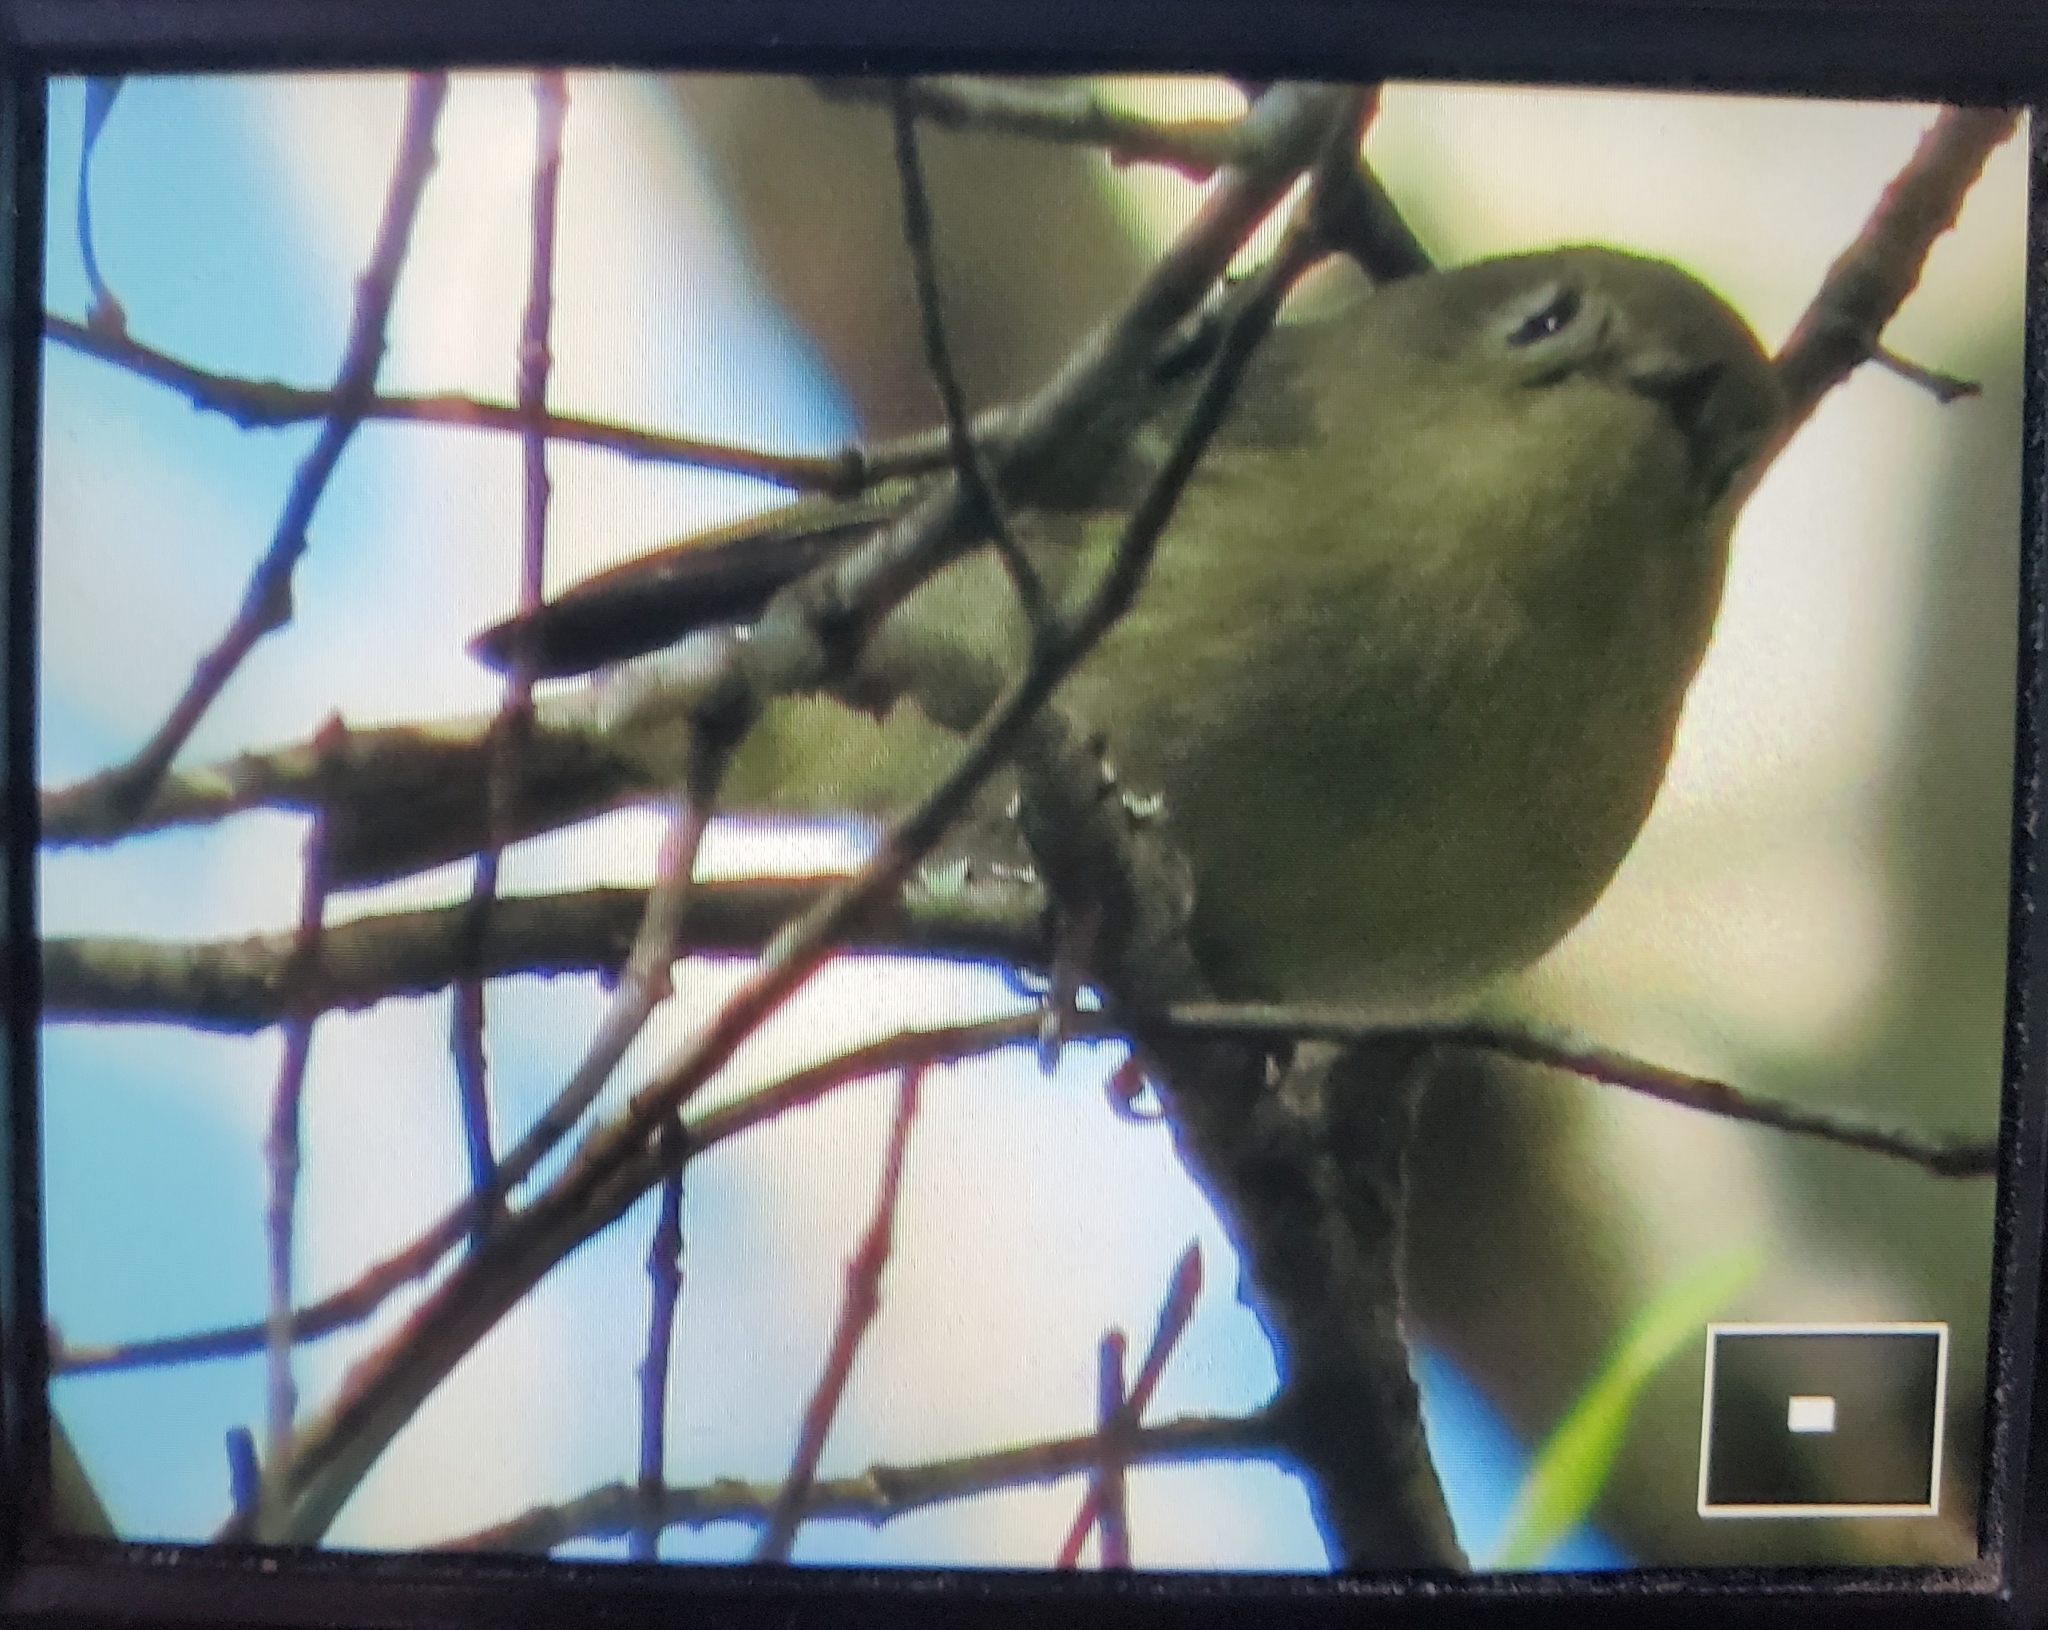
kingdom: Animalia
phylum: Chordata
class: Aves
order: Passeriformes
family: Regulidae
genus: Regulus
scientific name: Regulus calendula
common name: Ruby-crowned kinglet
